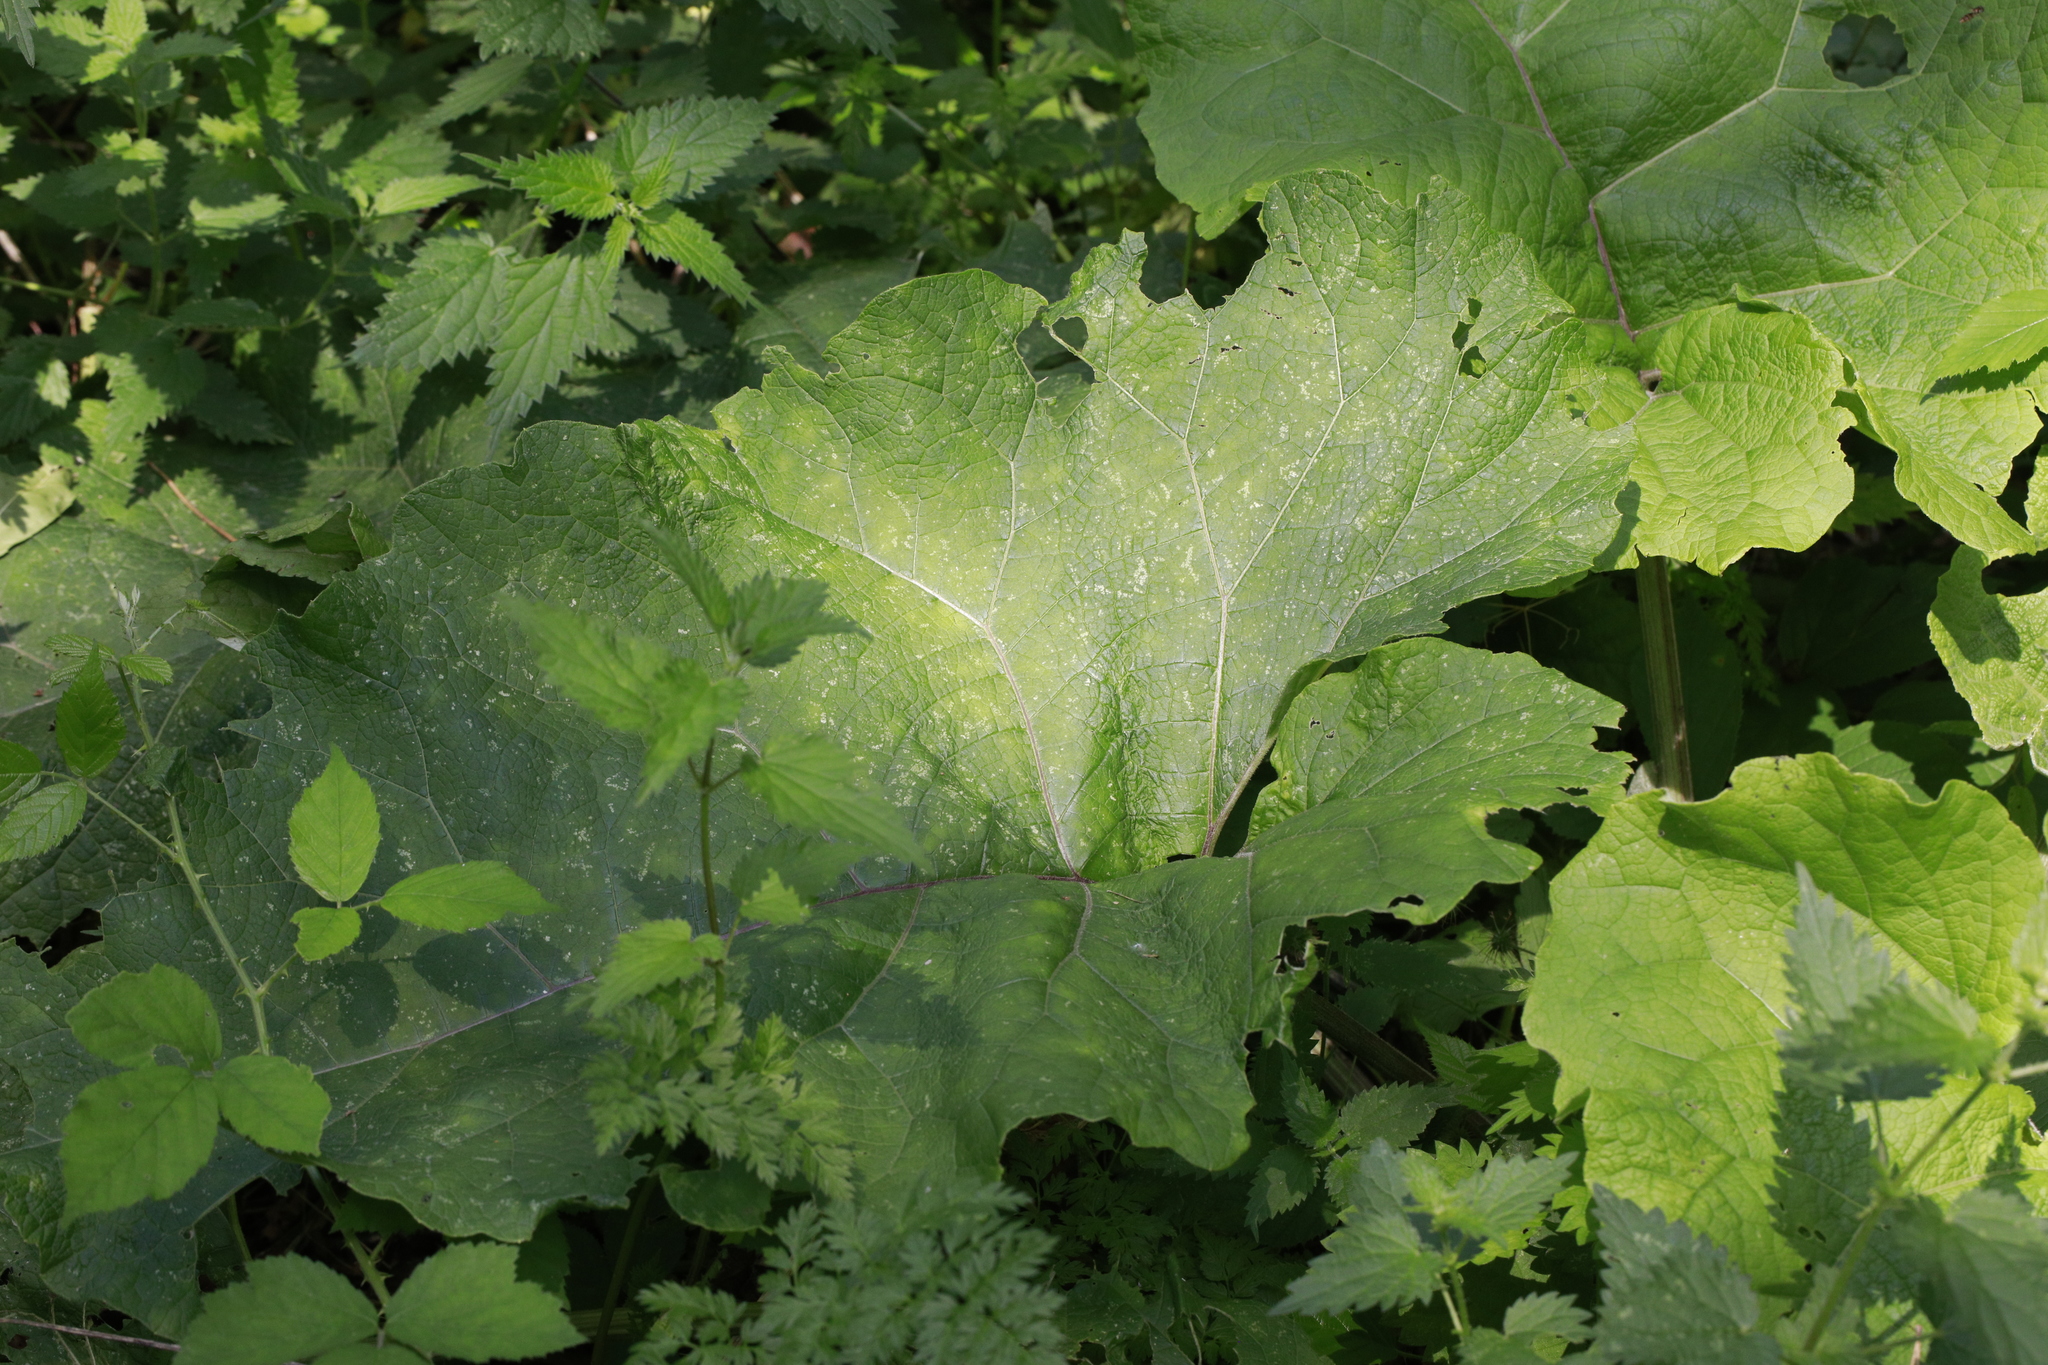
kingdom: Plantae
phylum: Tracheophyta
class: Magnoliopsida
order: Asterales
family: Asteraceae
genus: Arctium
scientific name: Arctium minus
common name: Lesser burdock
